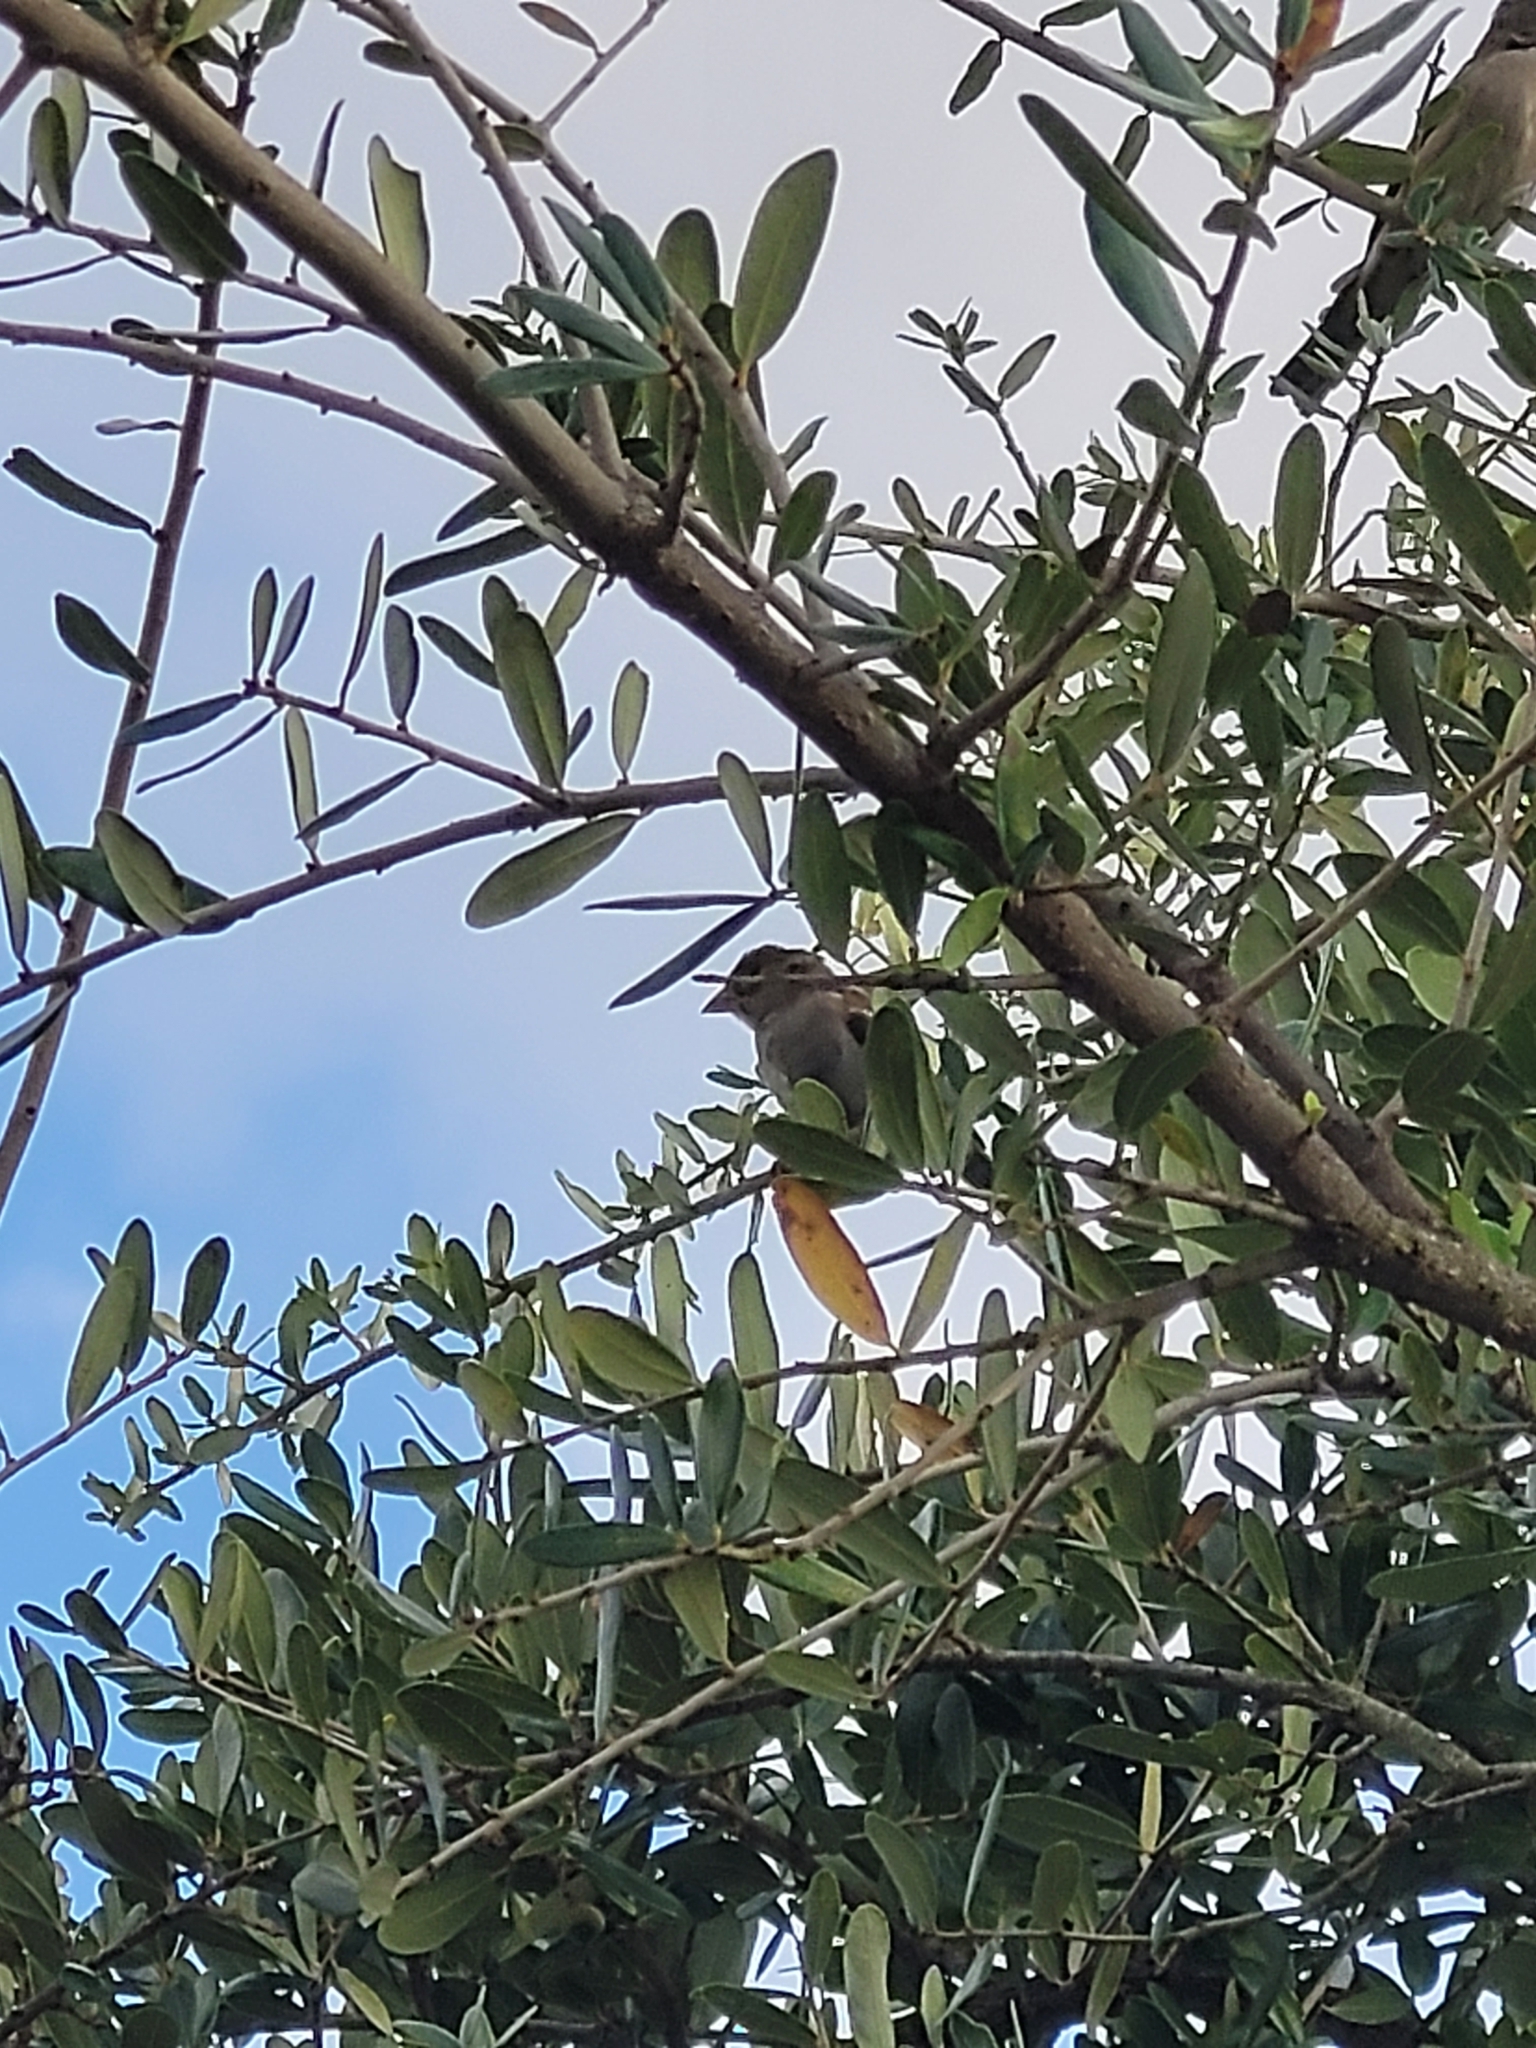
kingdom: Animalia
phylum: Chordata
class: Aves
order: Passeriformes
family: Passeridae
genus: Passer
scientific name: Passer domesticus
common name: House sparrow
